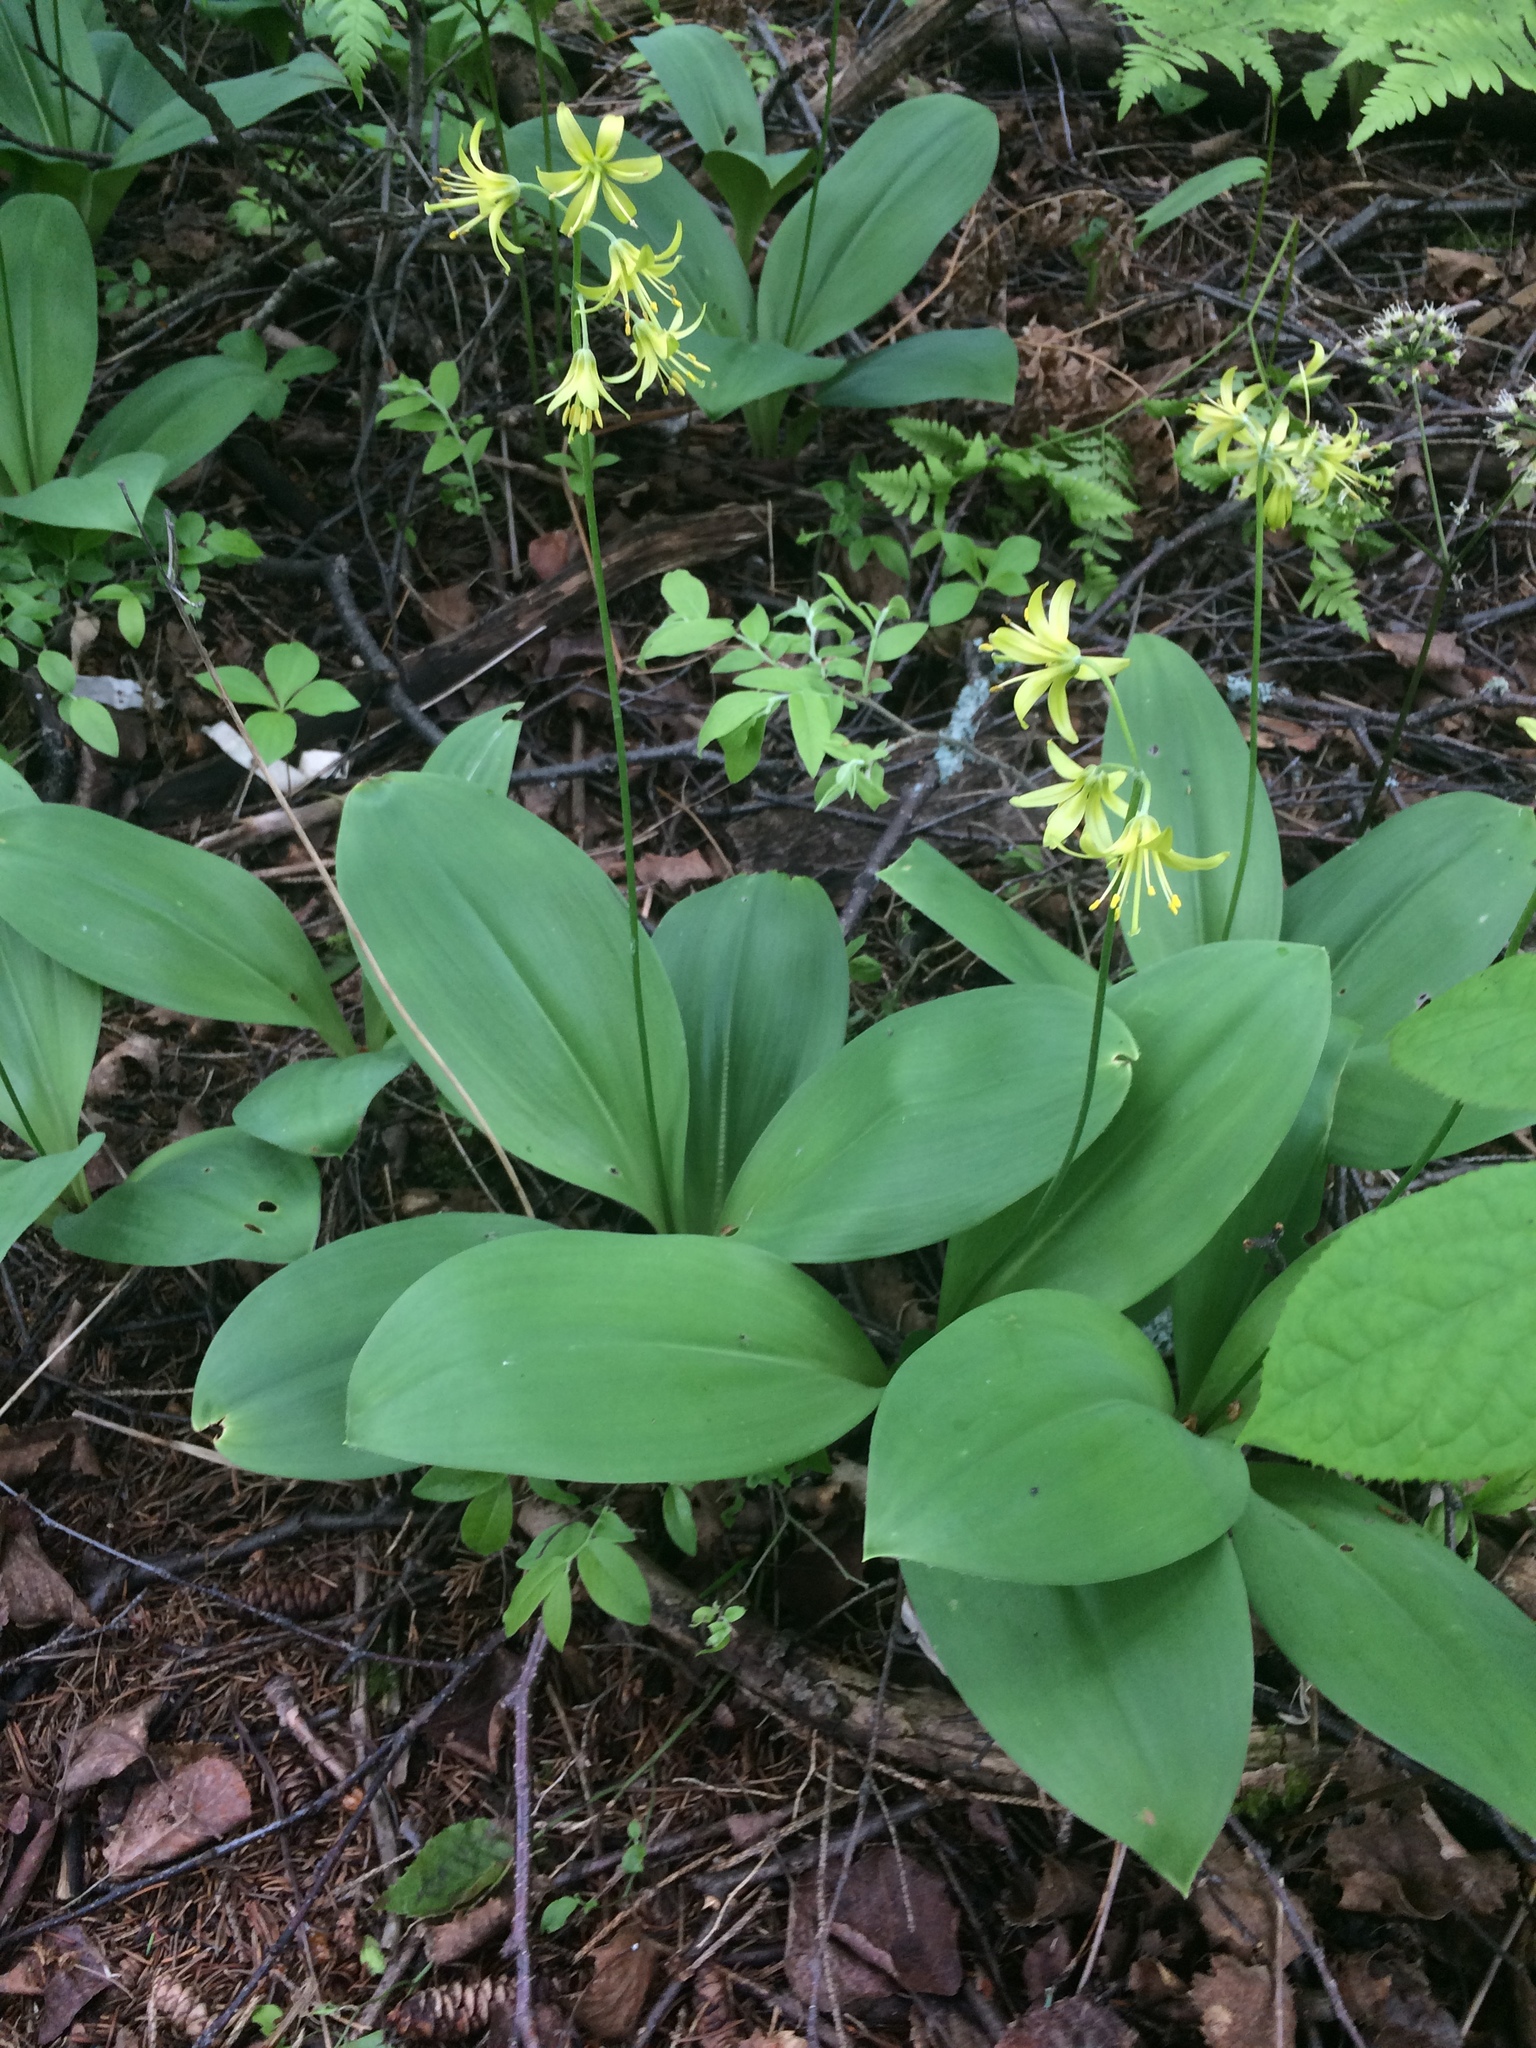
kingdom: Plantae
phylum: Tracheophyta
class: Liliopsida
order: Liliales
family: Liliaceae
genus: Clintonia
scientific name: Clintonia borealis
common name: Yellow clintonia
